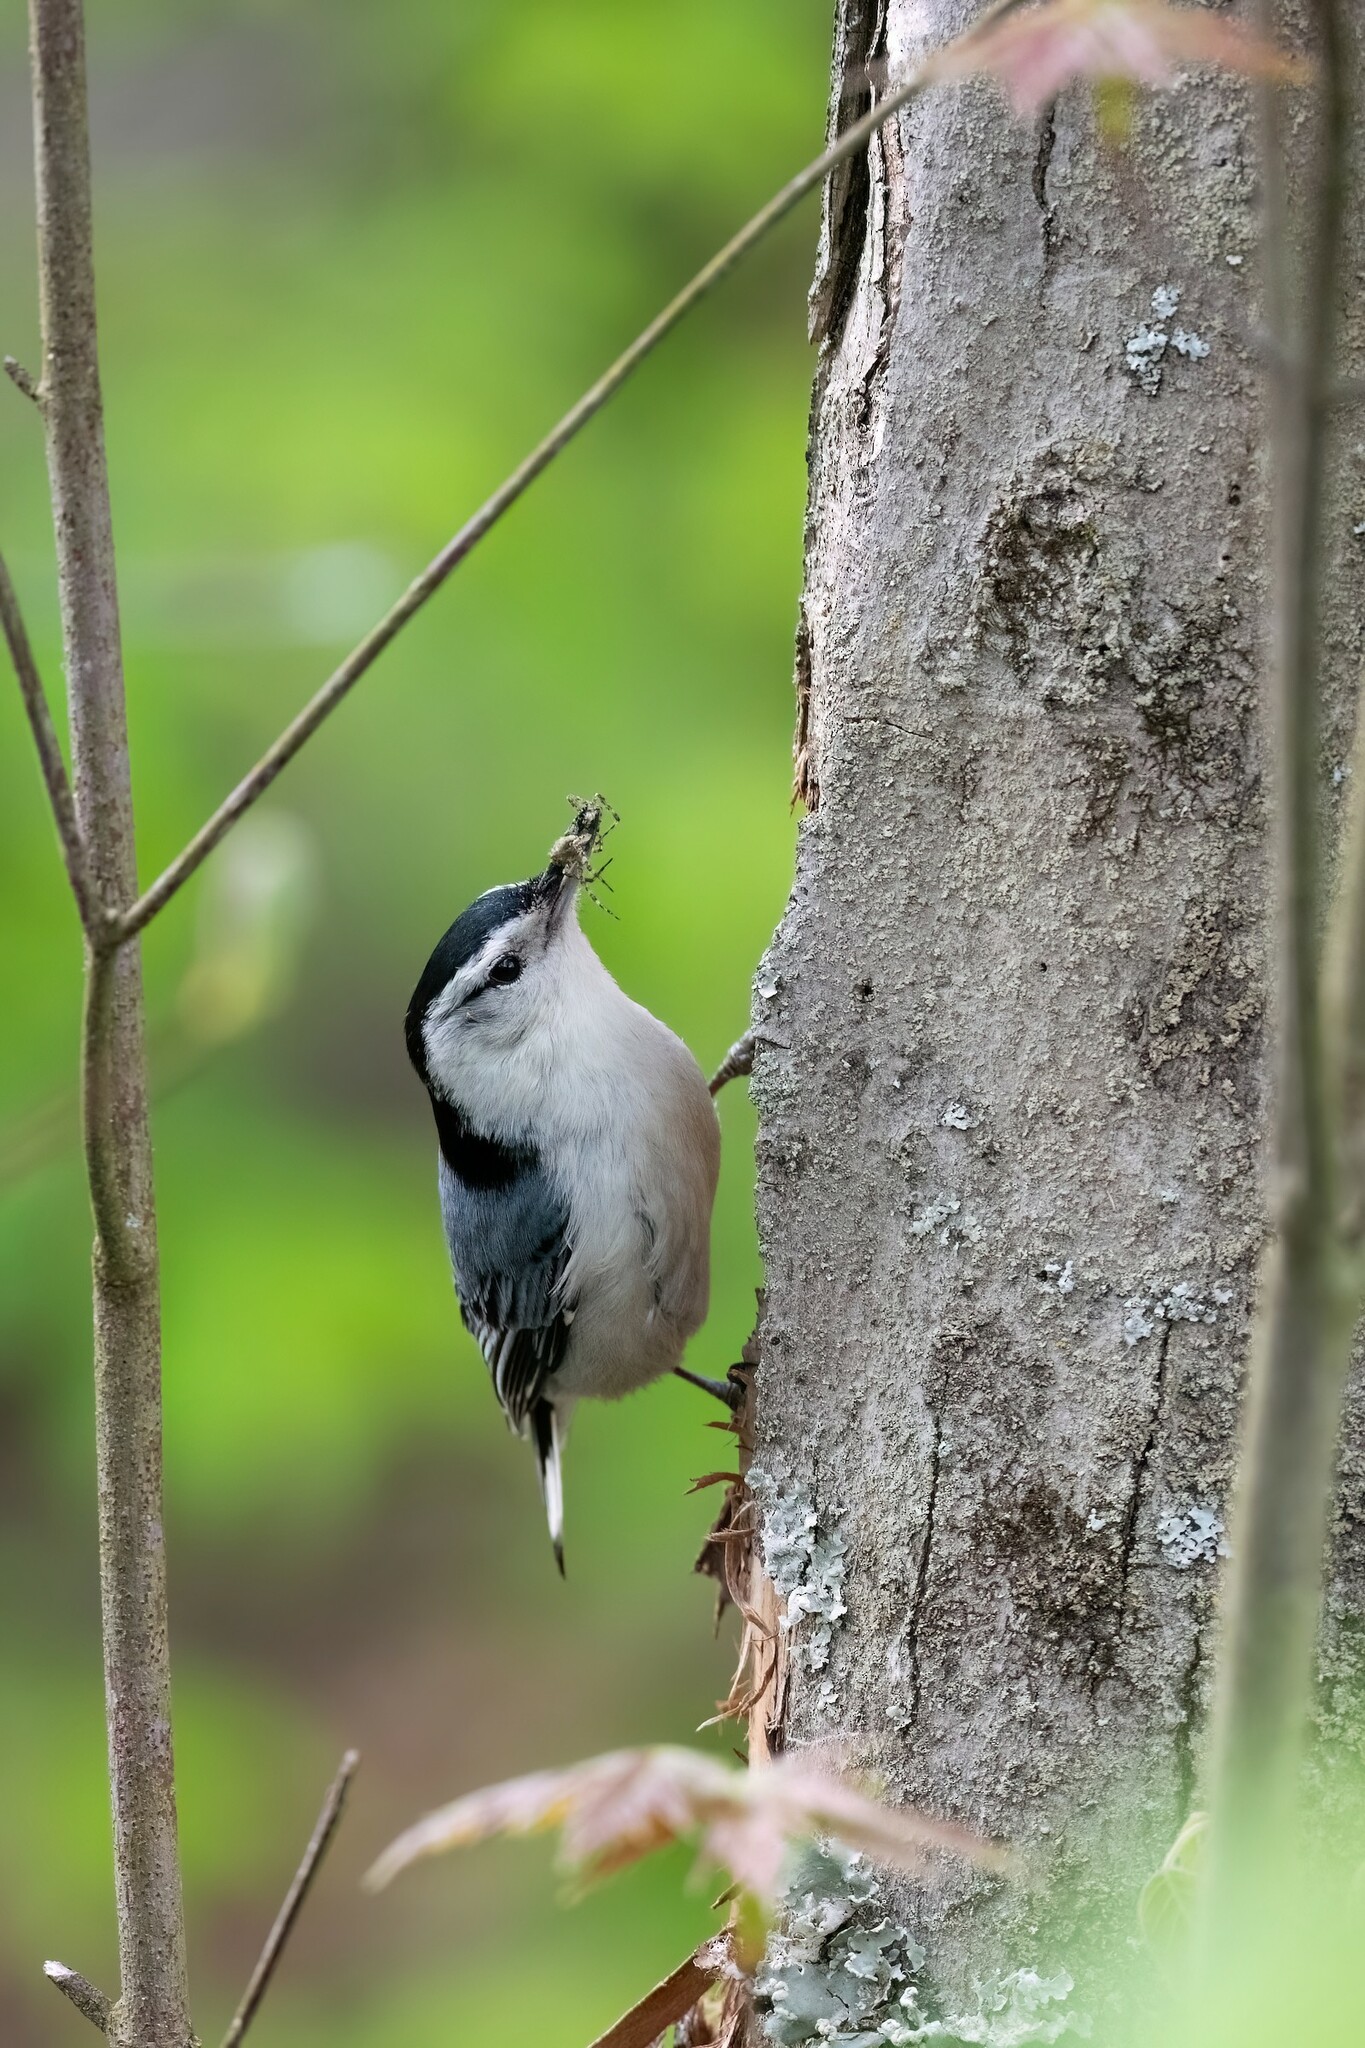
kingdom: Animalia
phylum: Chordata
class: Aves
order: Passeriformes
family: Sittidae
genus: Sitta
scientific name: Sitta carolinensis
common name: White-breasted nuthatch
